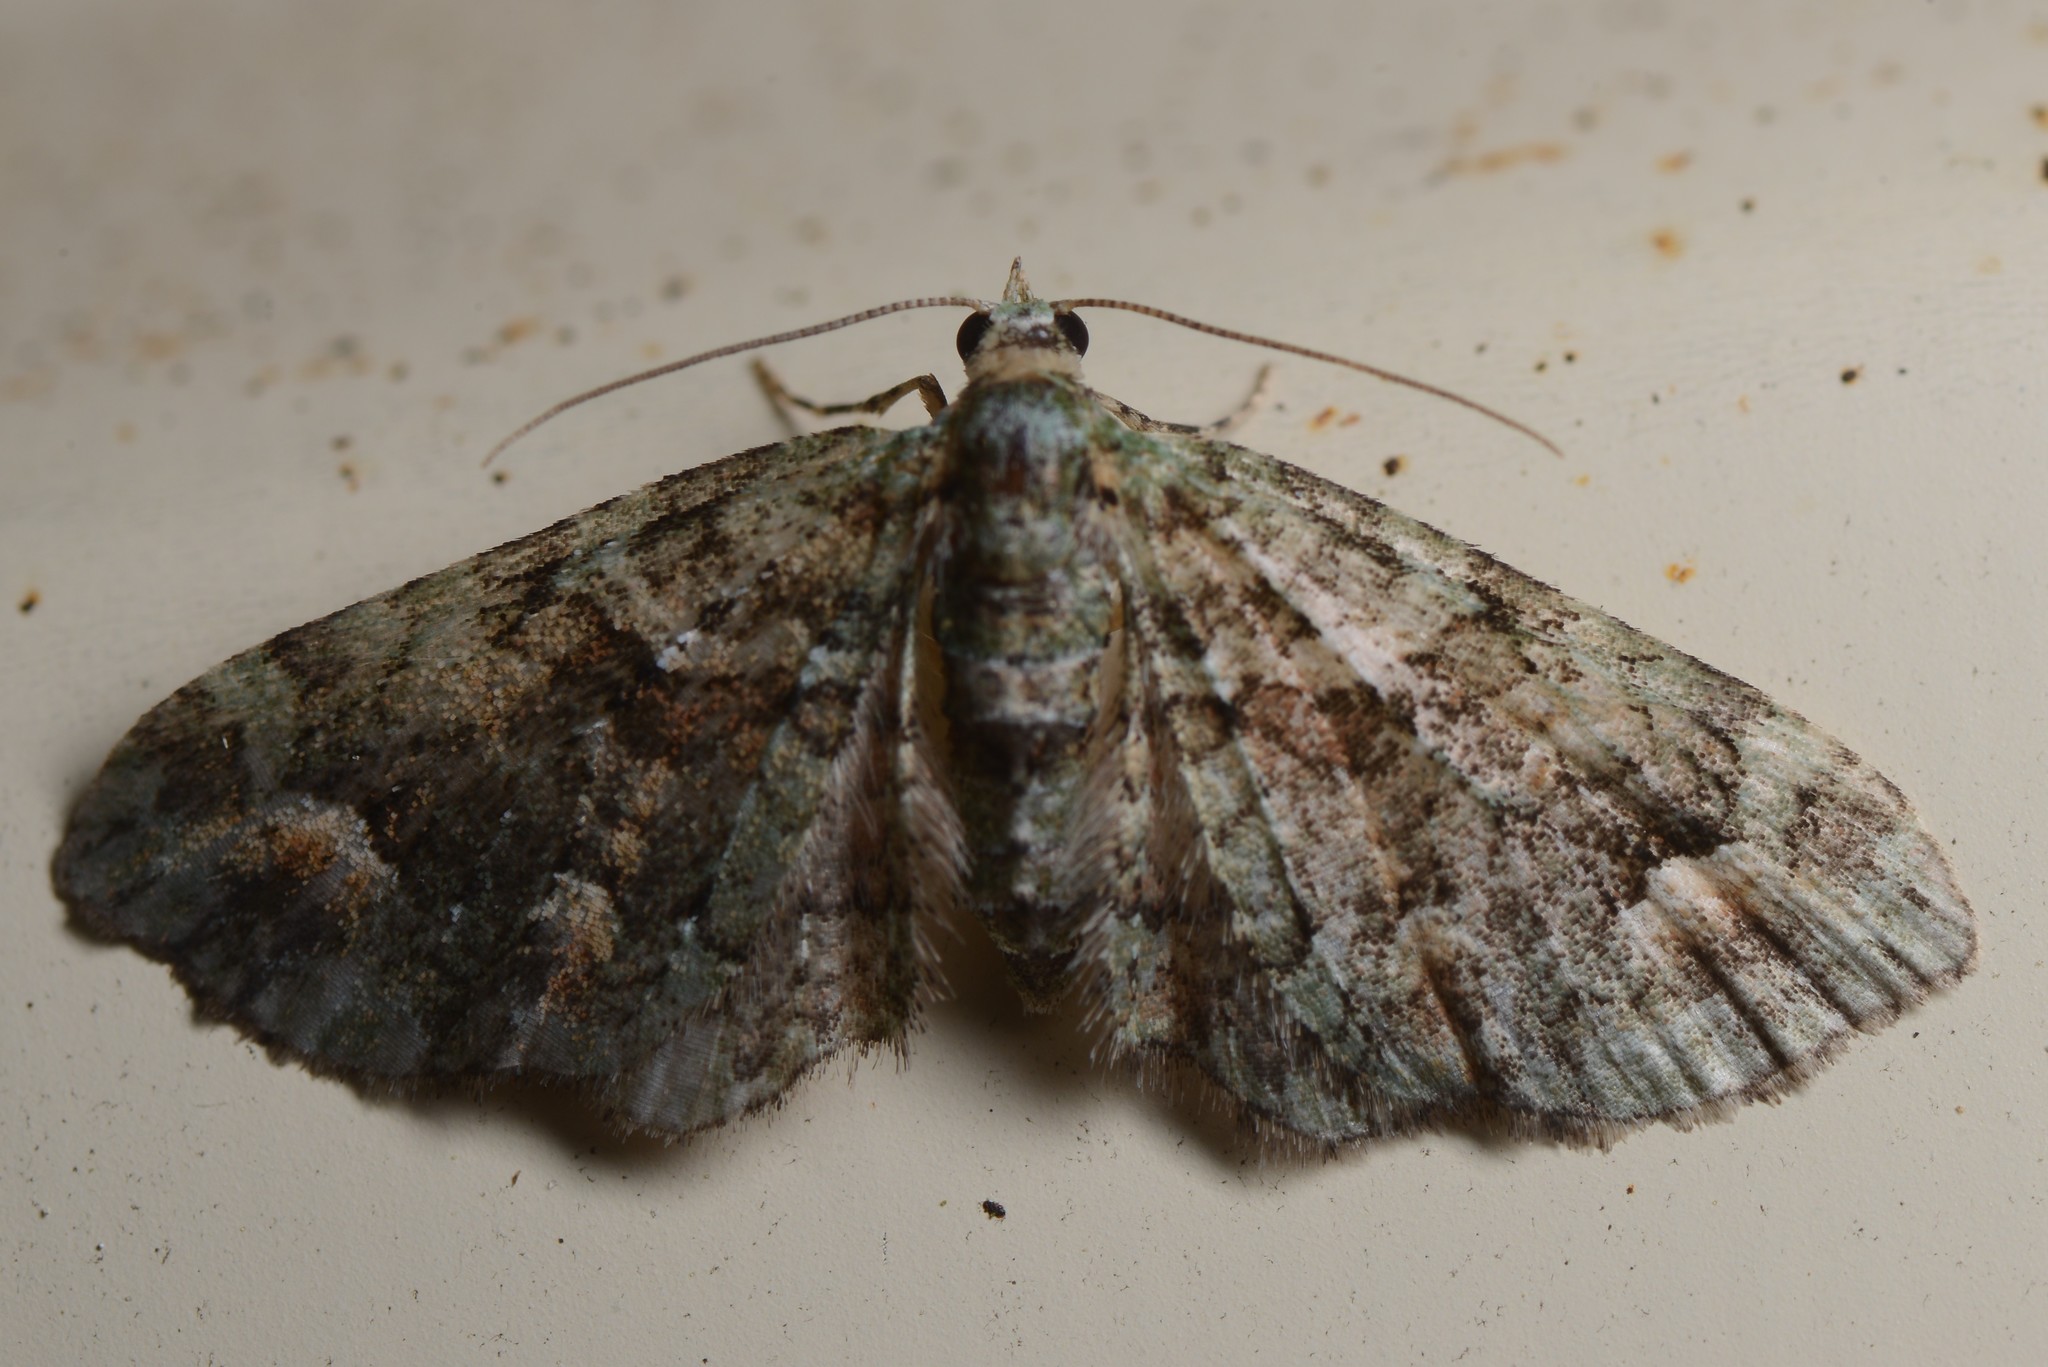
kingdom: Animalia
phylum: Arthropoda
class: Insecta
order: Lepidoptera
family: Geometridae
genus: Idaea
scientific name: Idaea mutanda
